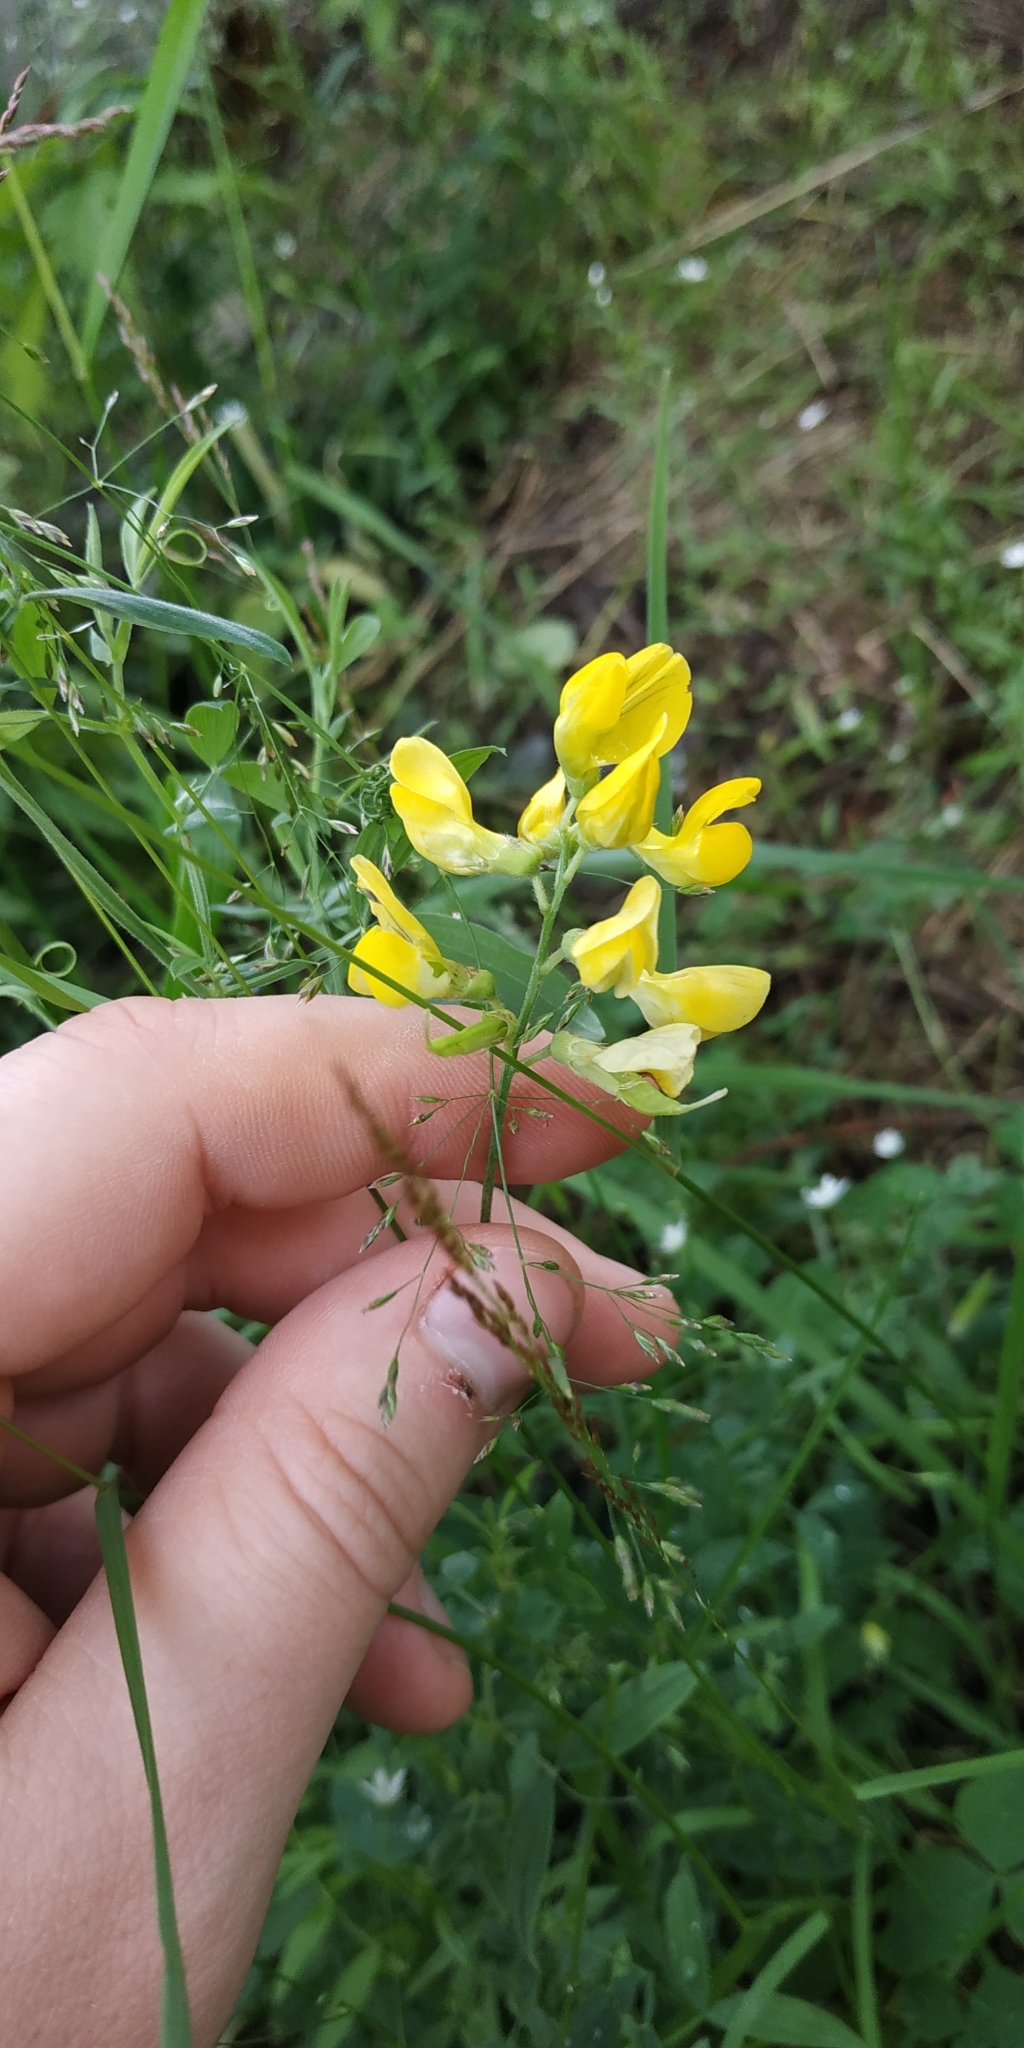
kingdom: Plantae
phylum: Tracheophyta
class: Magnoliopsida
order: Fabales
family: Fabaceae
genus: Lathyrus
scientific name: Lathyrus pratensis
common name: Meadow vetchling
